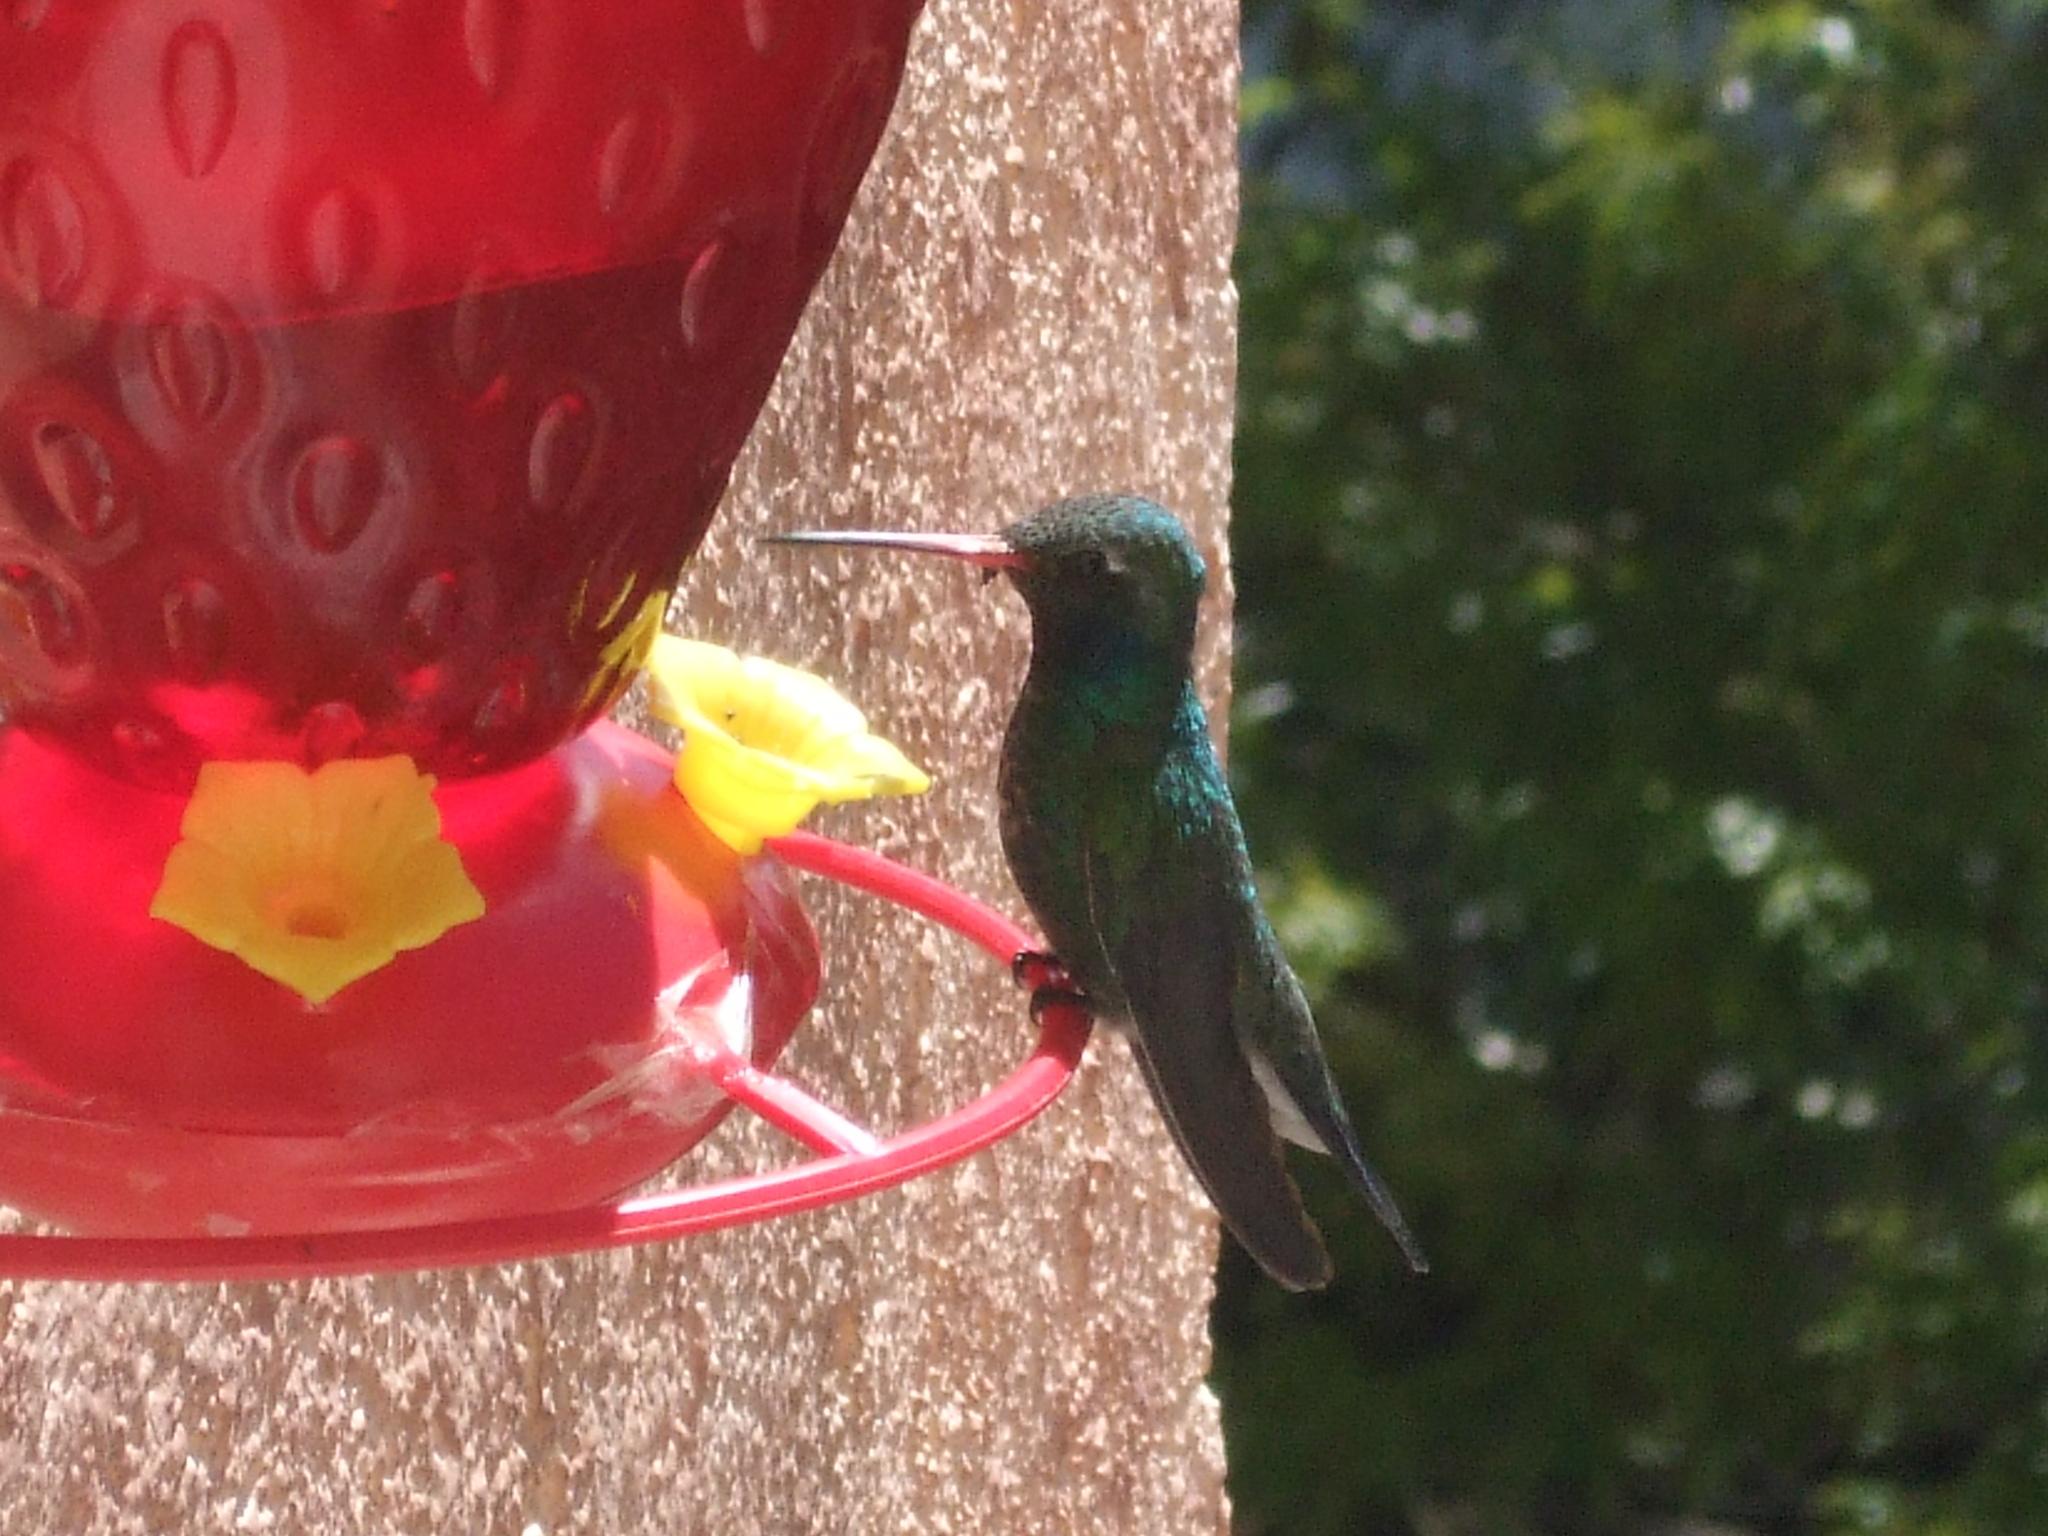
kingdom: Animalia
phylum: Chordata
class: Aves
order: Apodiformes
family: Trochilidae
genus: Cynanthus
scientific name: Cynanthus latirostris
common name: Broad-billed hummingbird
